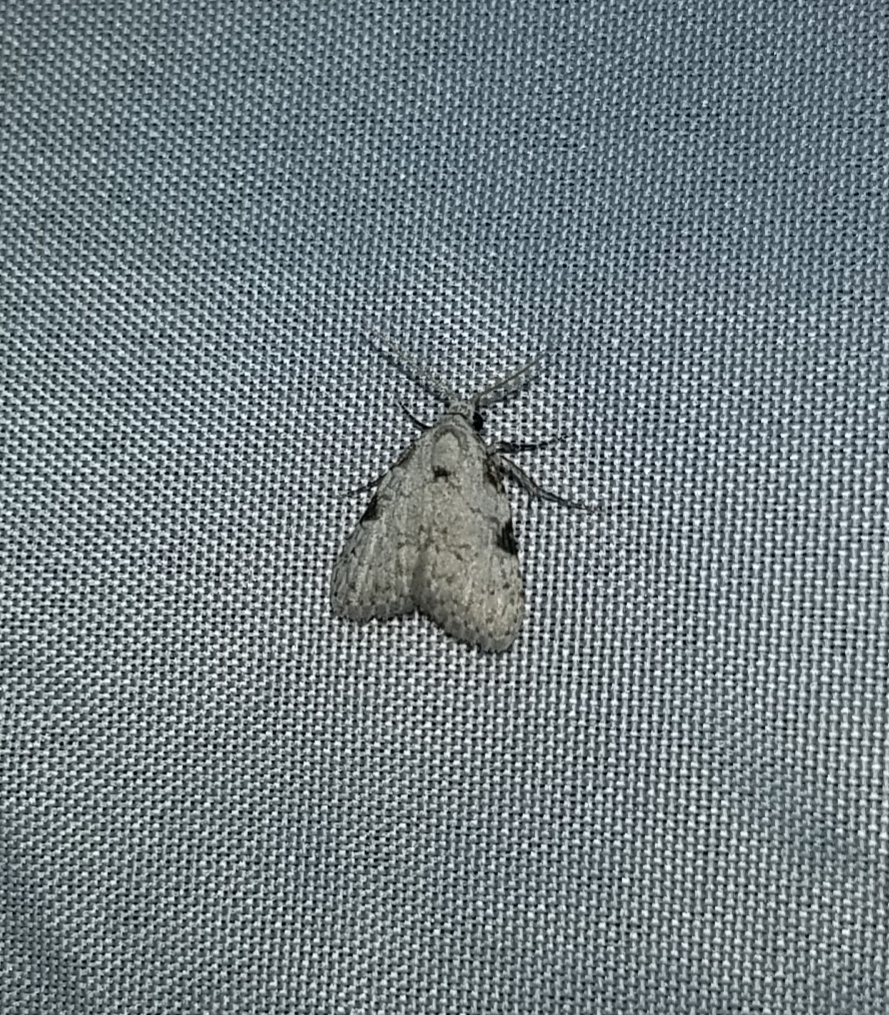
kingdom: Animalia
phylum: Arthropoda
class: Insecta
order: Lepidoptera
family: Nolidae
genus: Meganola
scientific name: Meganola minuscula
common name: Confused meganola moth
